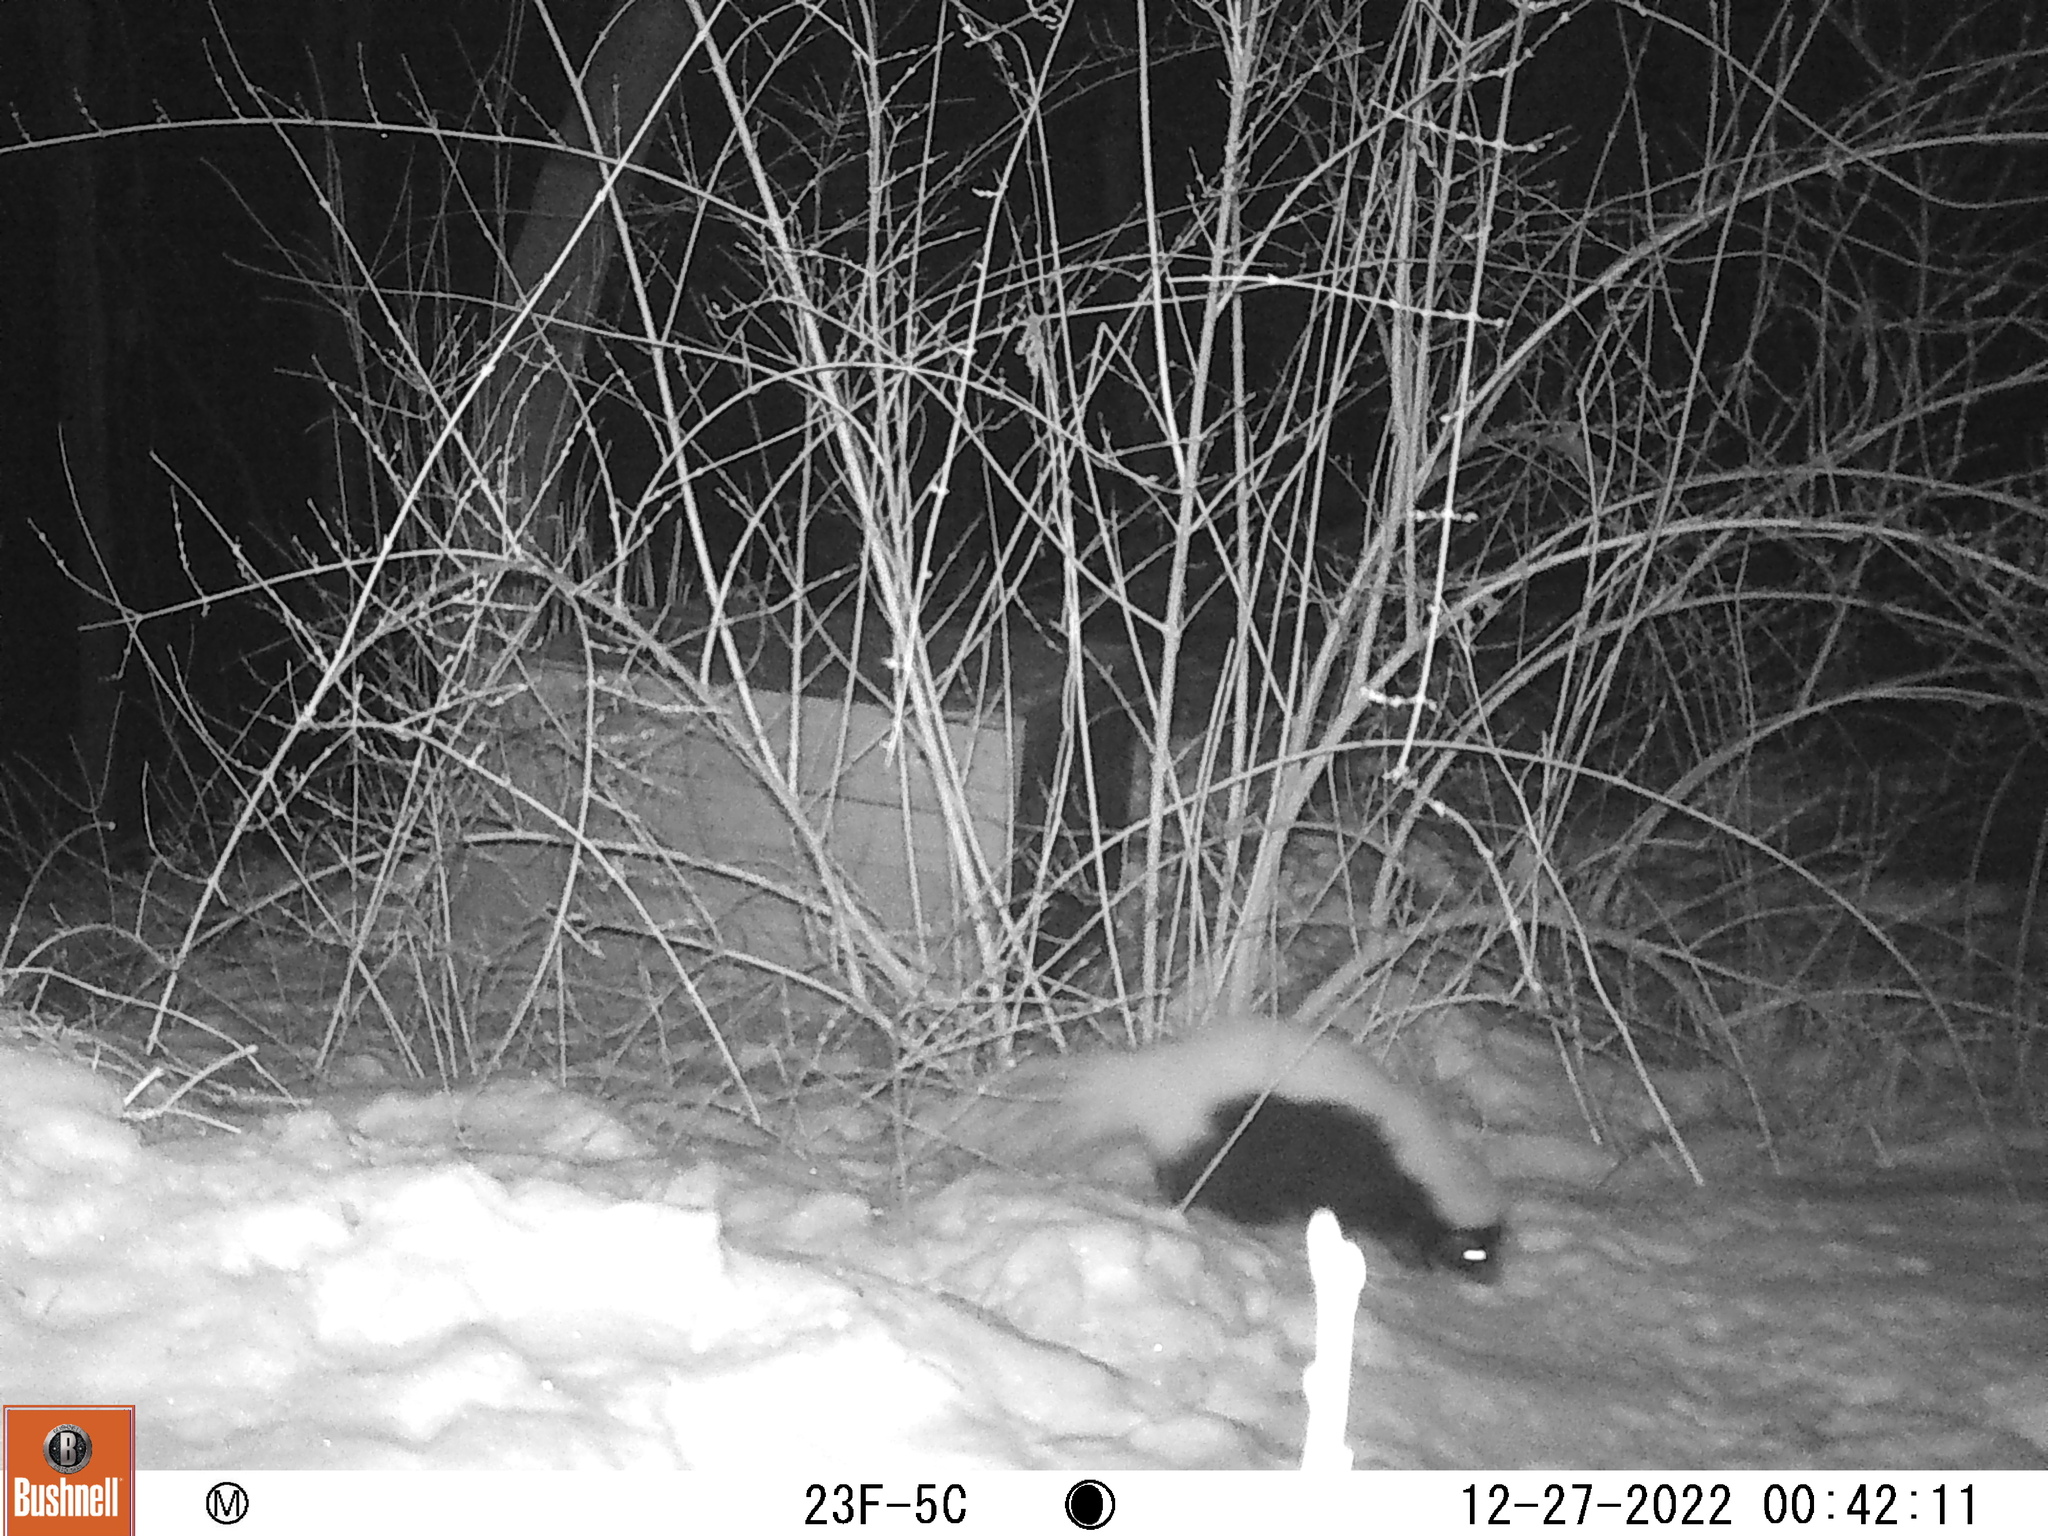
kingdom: Animalia
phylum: Chordata
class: Mammalia
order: Carnivora
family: Mephitidae
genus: Mephitis
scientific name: Mephitis mephitis
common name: Striped skunk
